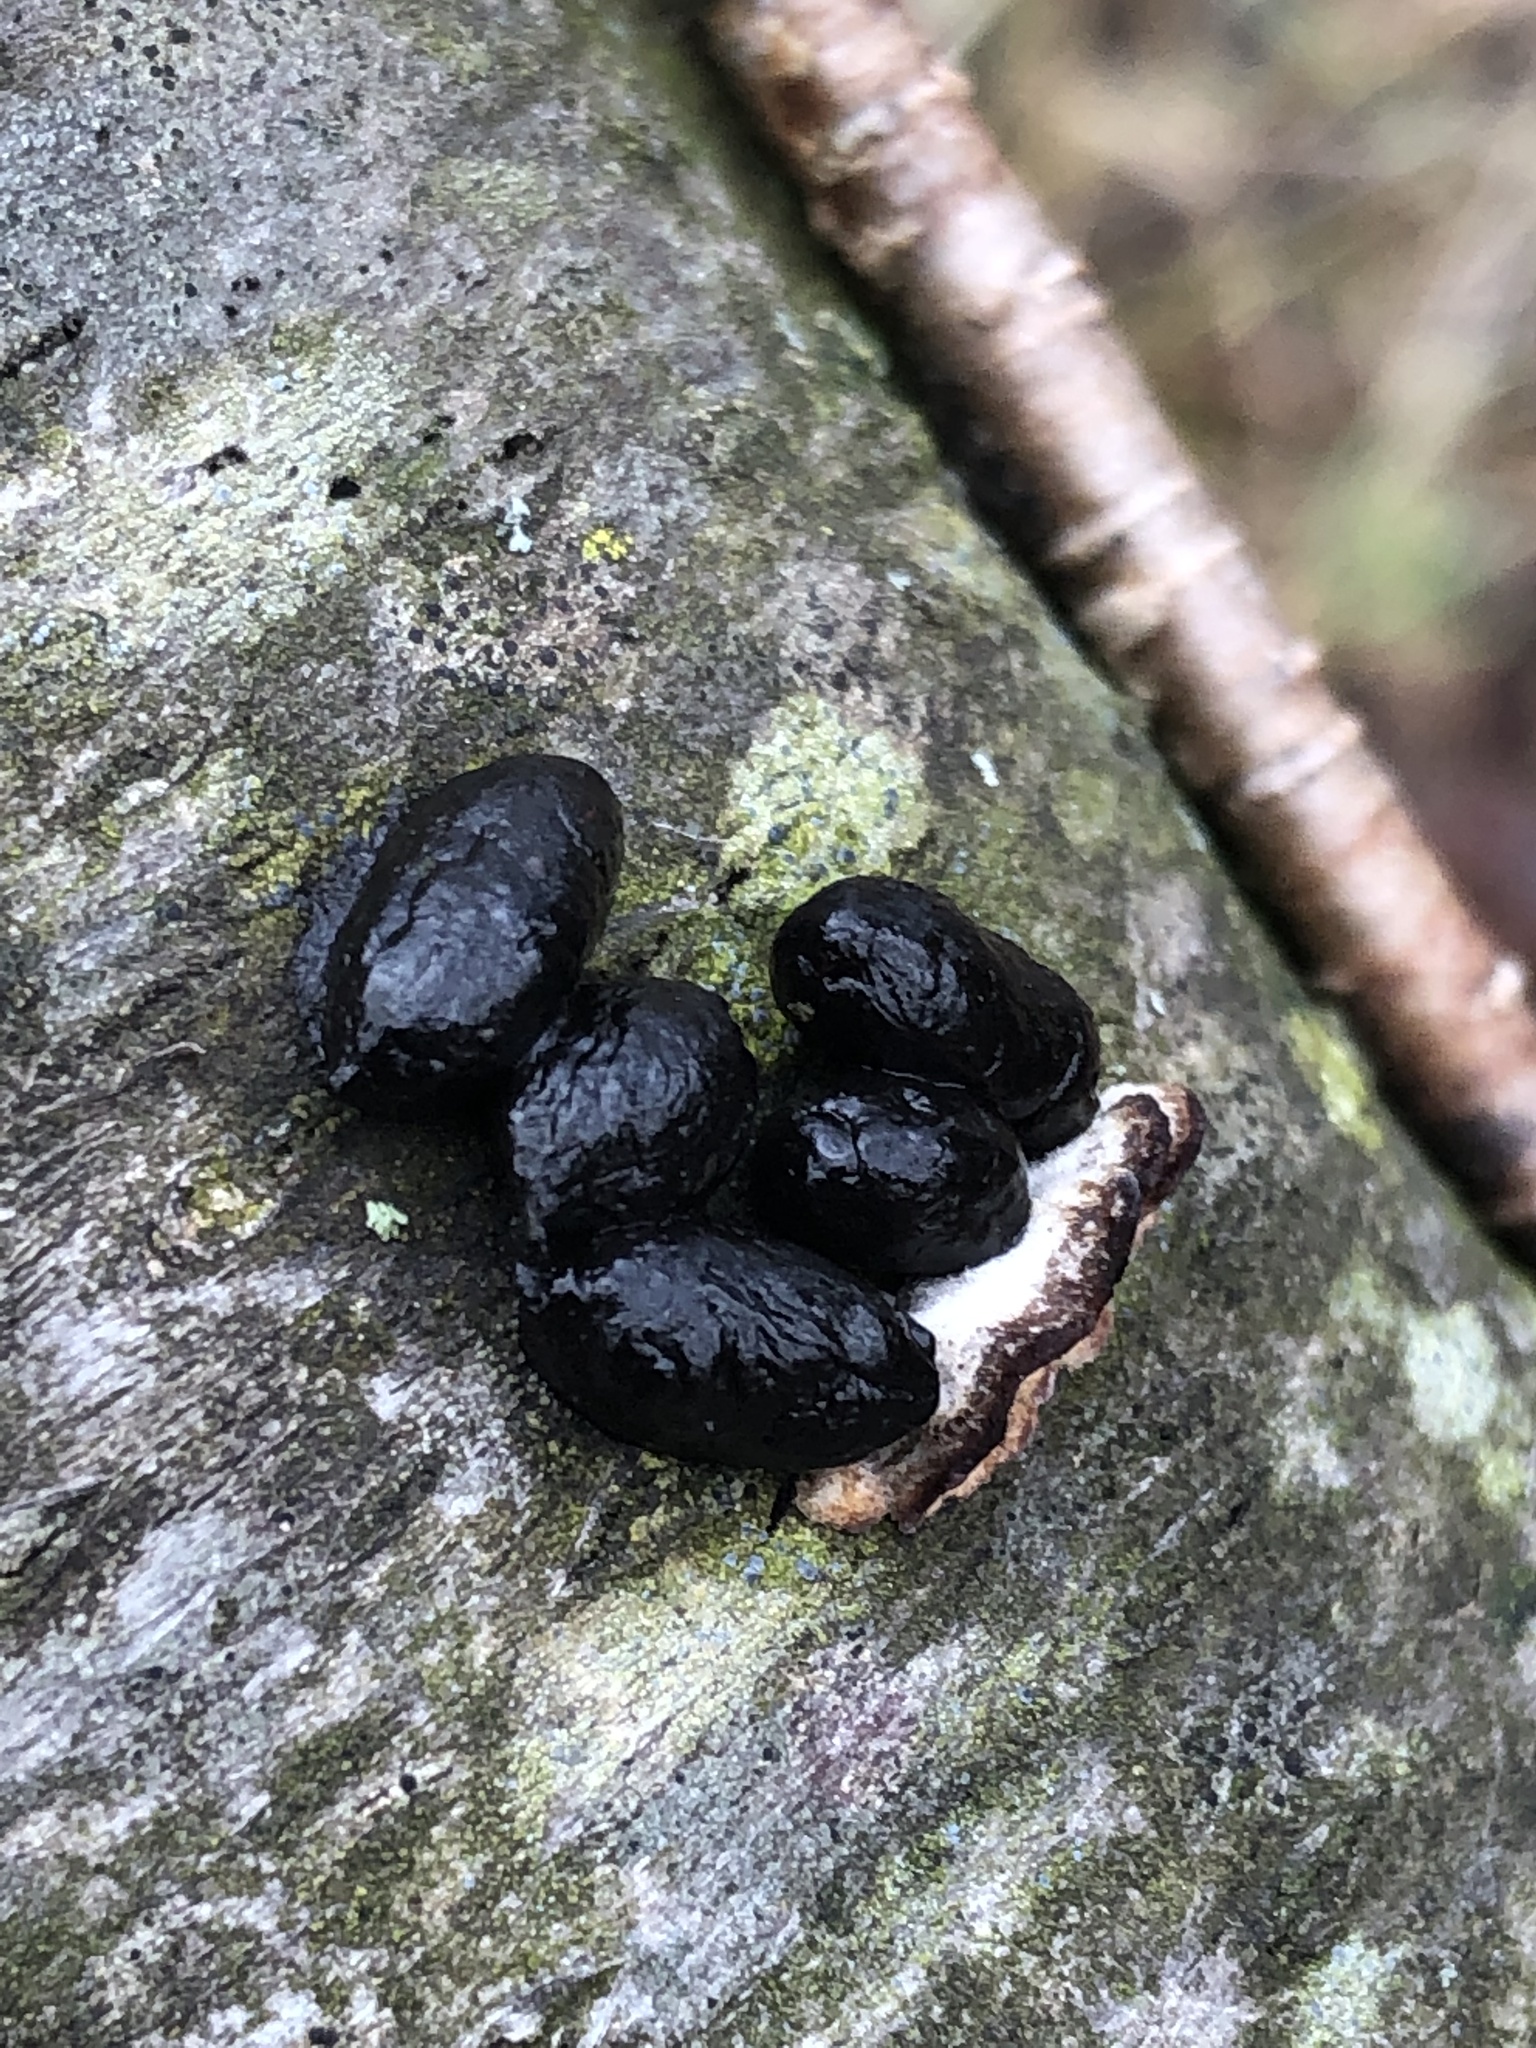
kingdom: Animalia
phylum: Chordata
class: Mammalia
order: Rodentia
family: Erethizontidae
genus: Erethizon
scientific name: Erethizon dorsatus
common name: North american porcupine
